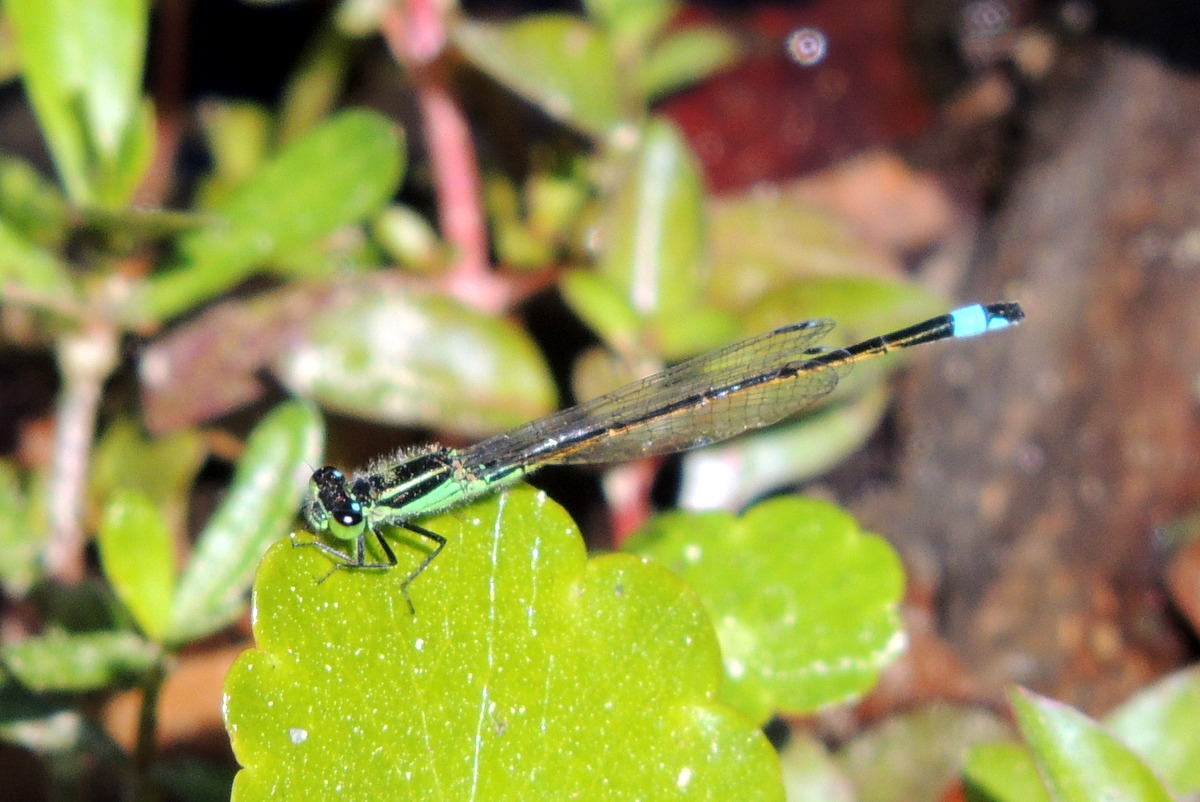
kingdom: Animalia
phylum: Arthropoda
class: Insecta
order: Odonata
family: Coenagrionidae
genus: Ischnura
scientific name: Ischnura ramburii
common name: Rambur's forktail
